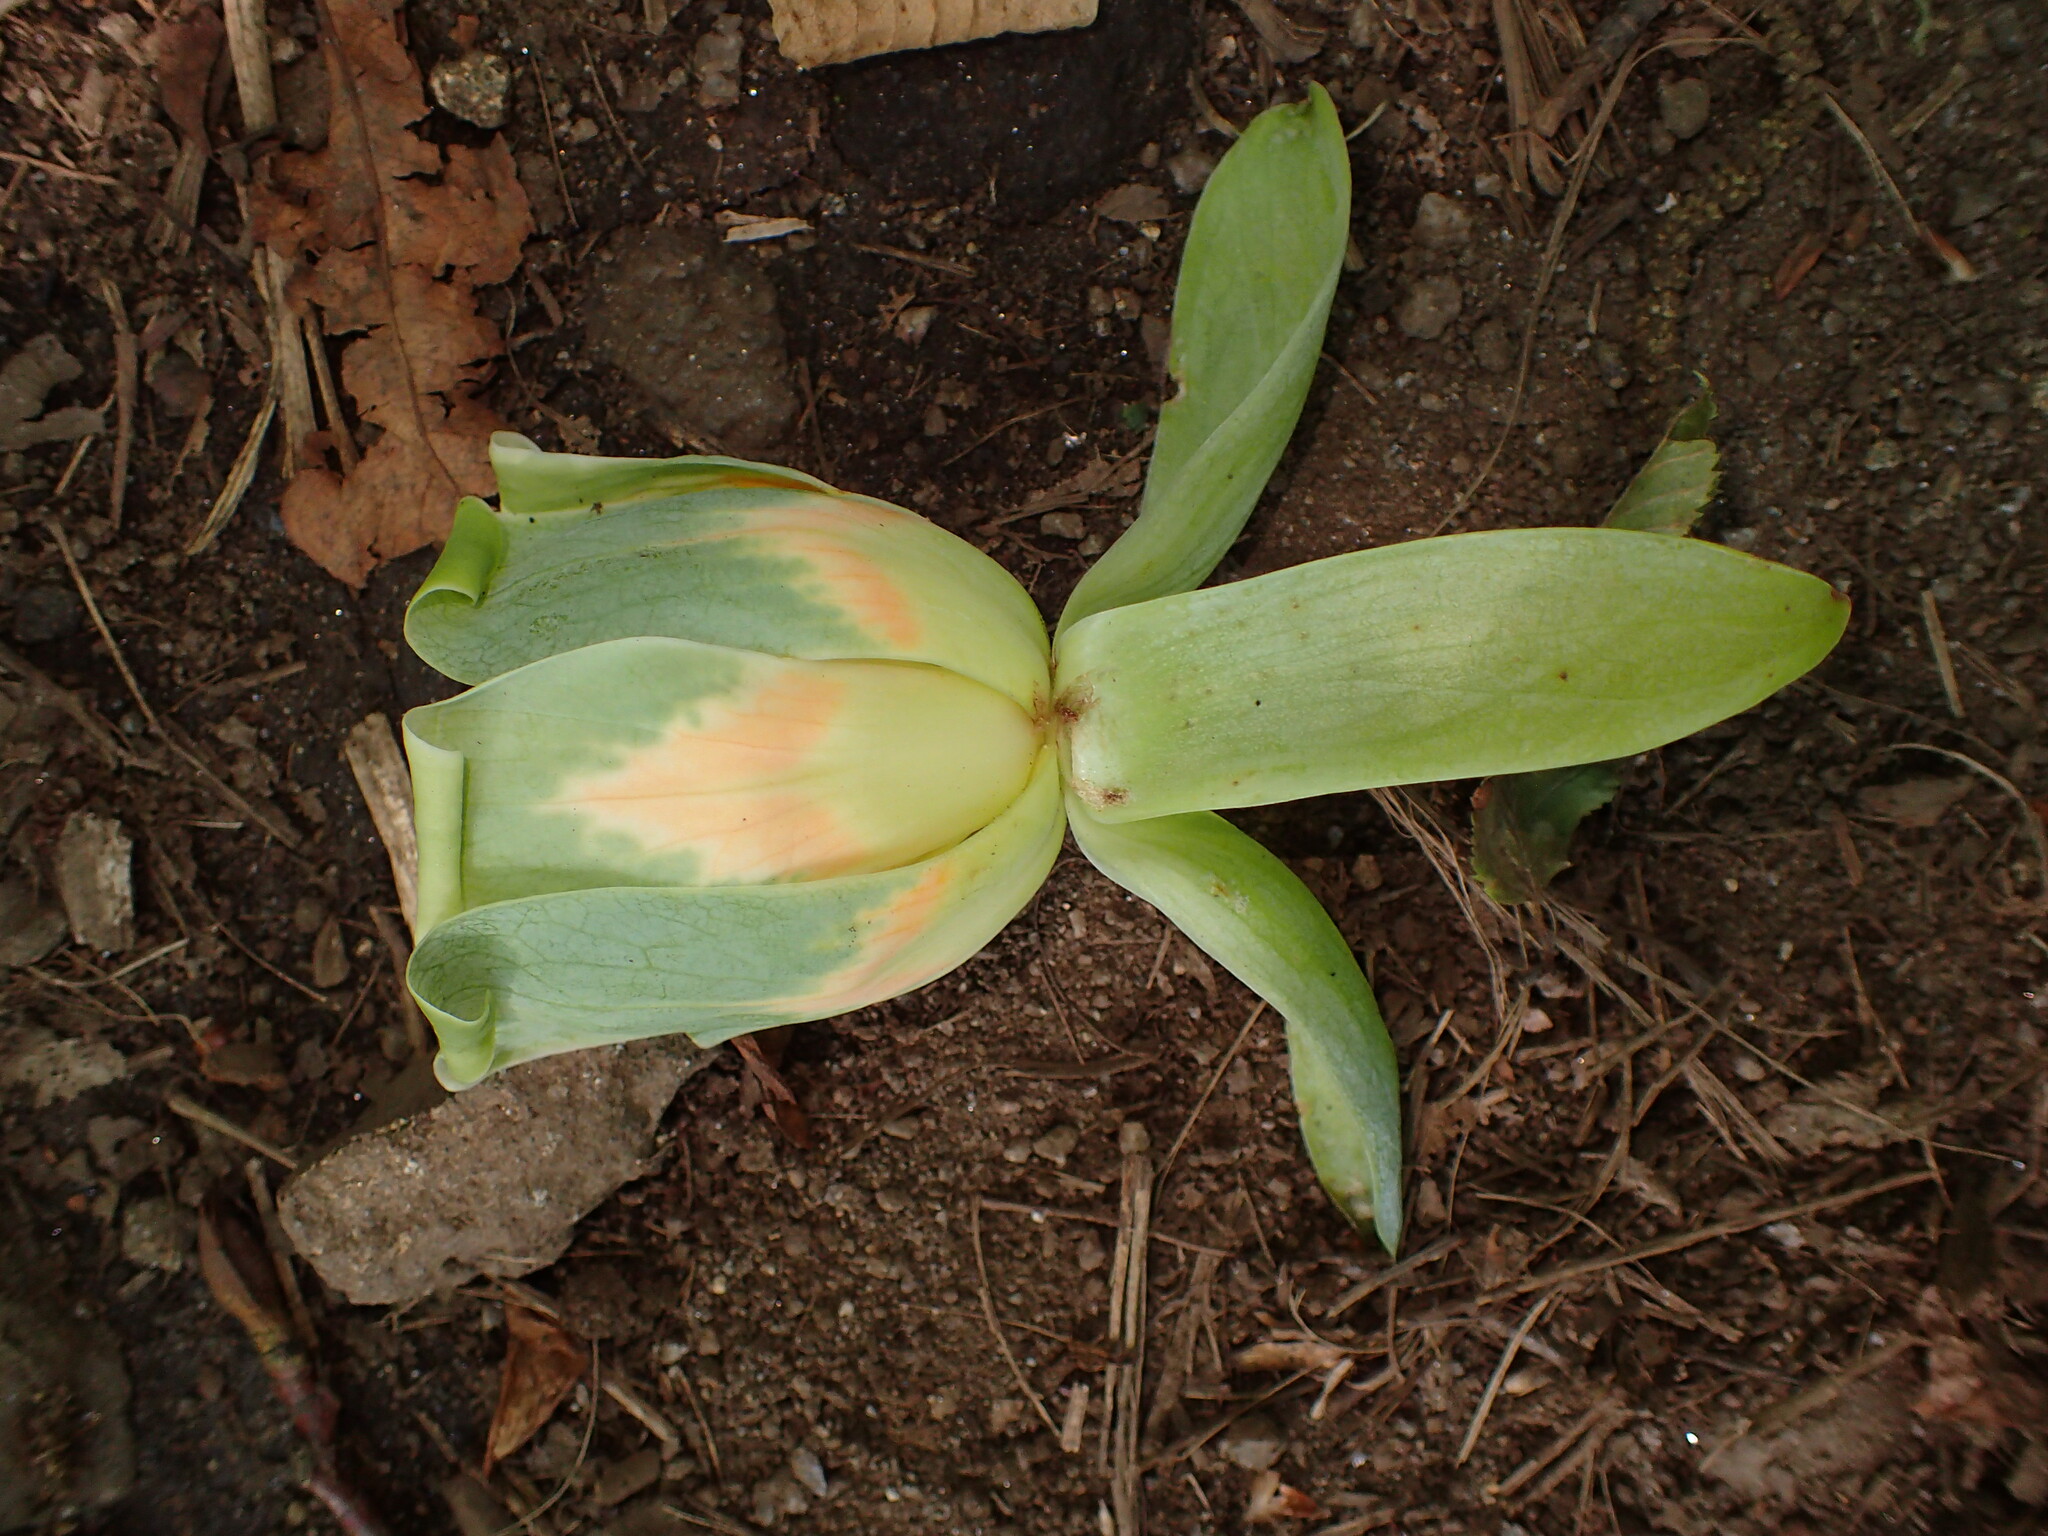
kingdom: Plantae
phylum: Tracheophyta
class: Magnoliopsida
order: Magnoliales
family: Magnoliaceae
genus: Liriodendron
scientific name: Liriodendron tulipifera
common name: Tulip tree
